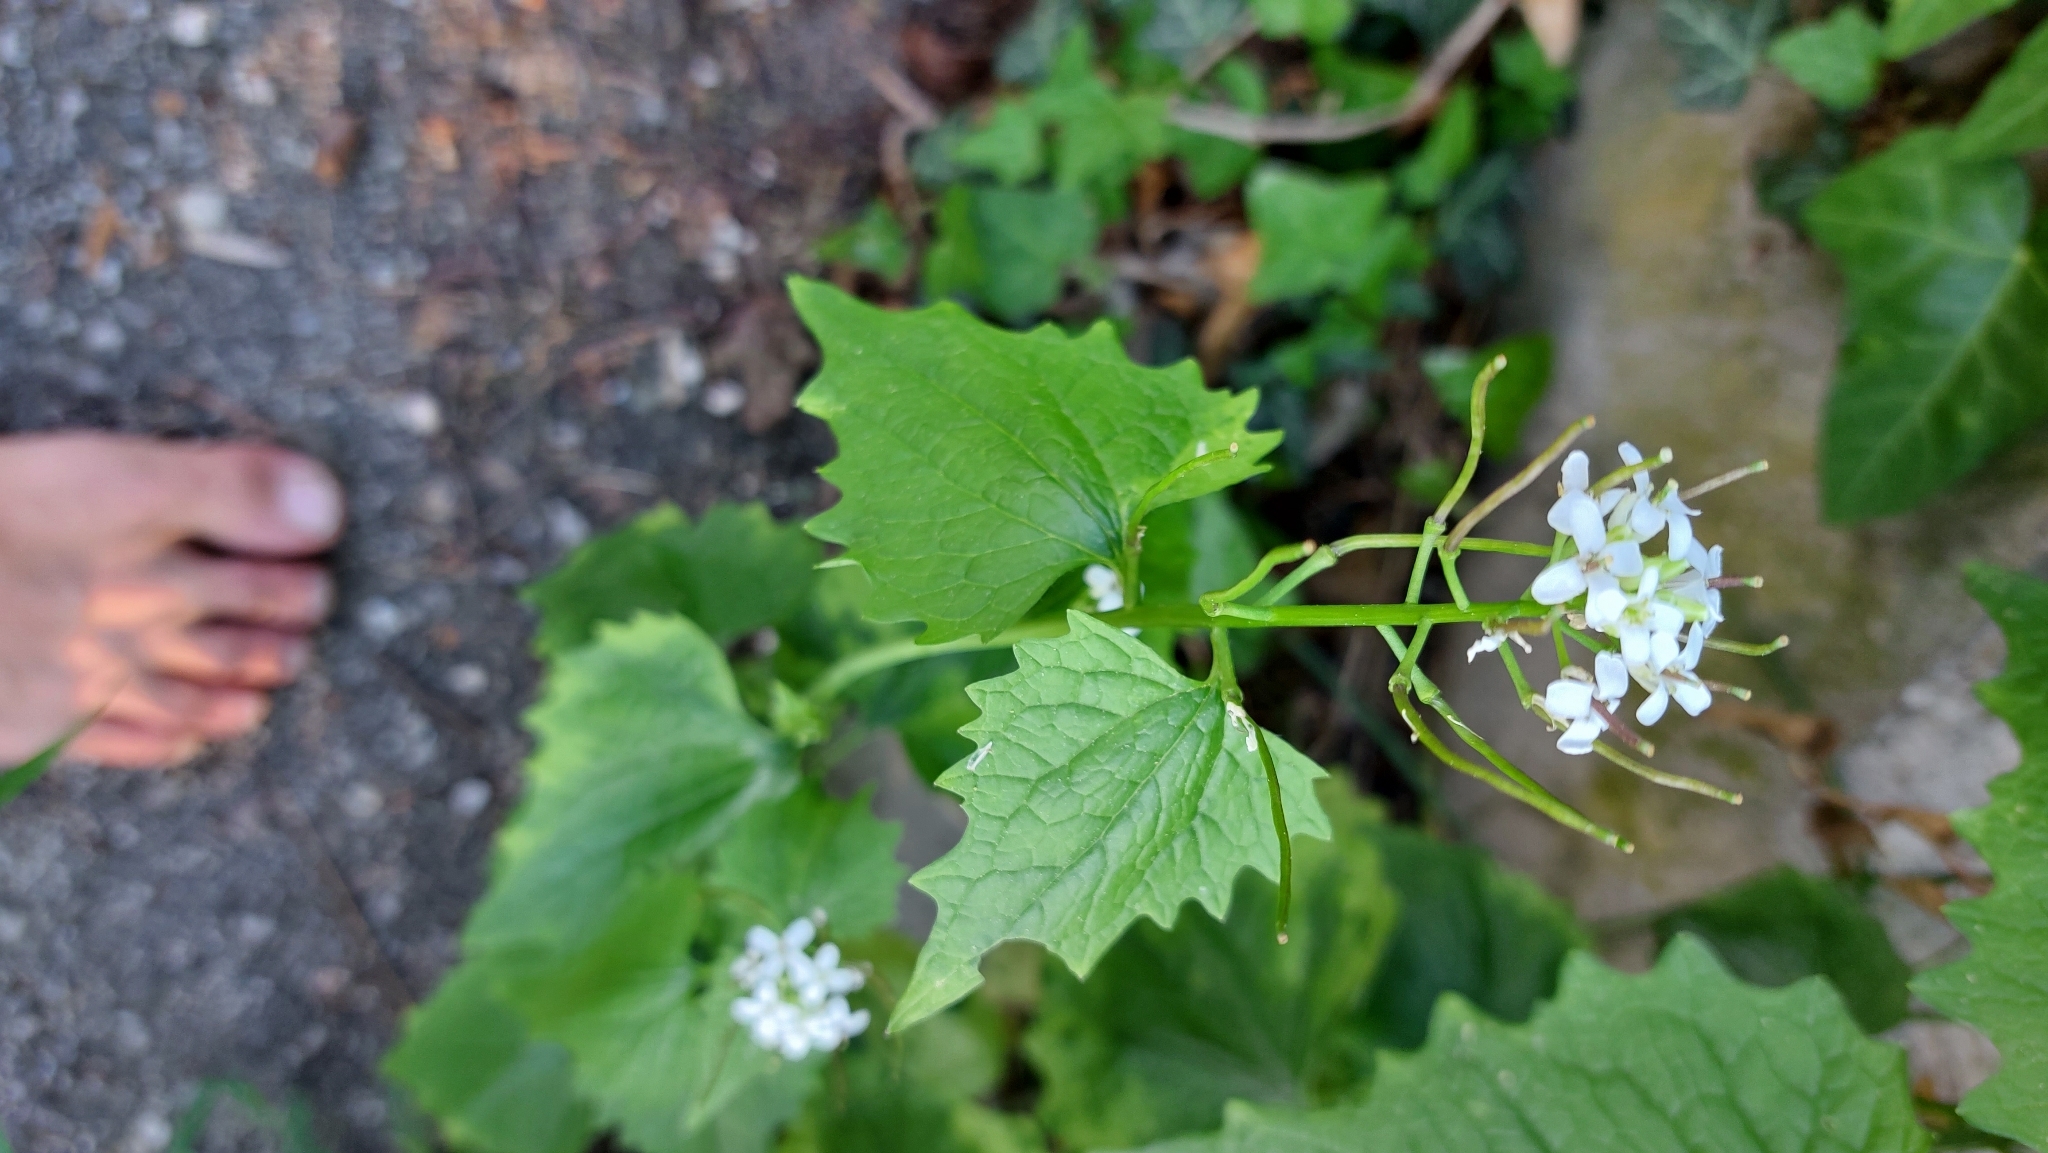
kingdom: Plantae
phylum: Tracheophyta
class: Magnoliopsida
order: Brassicales
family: Brassicaceae
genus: Alliaria
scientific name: Alliaria petiolata
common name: Garlic mustard
